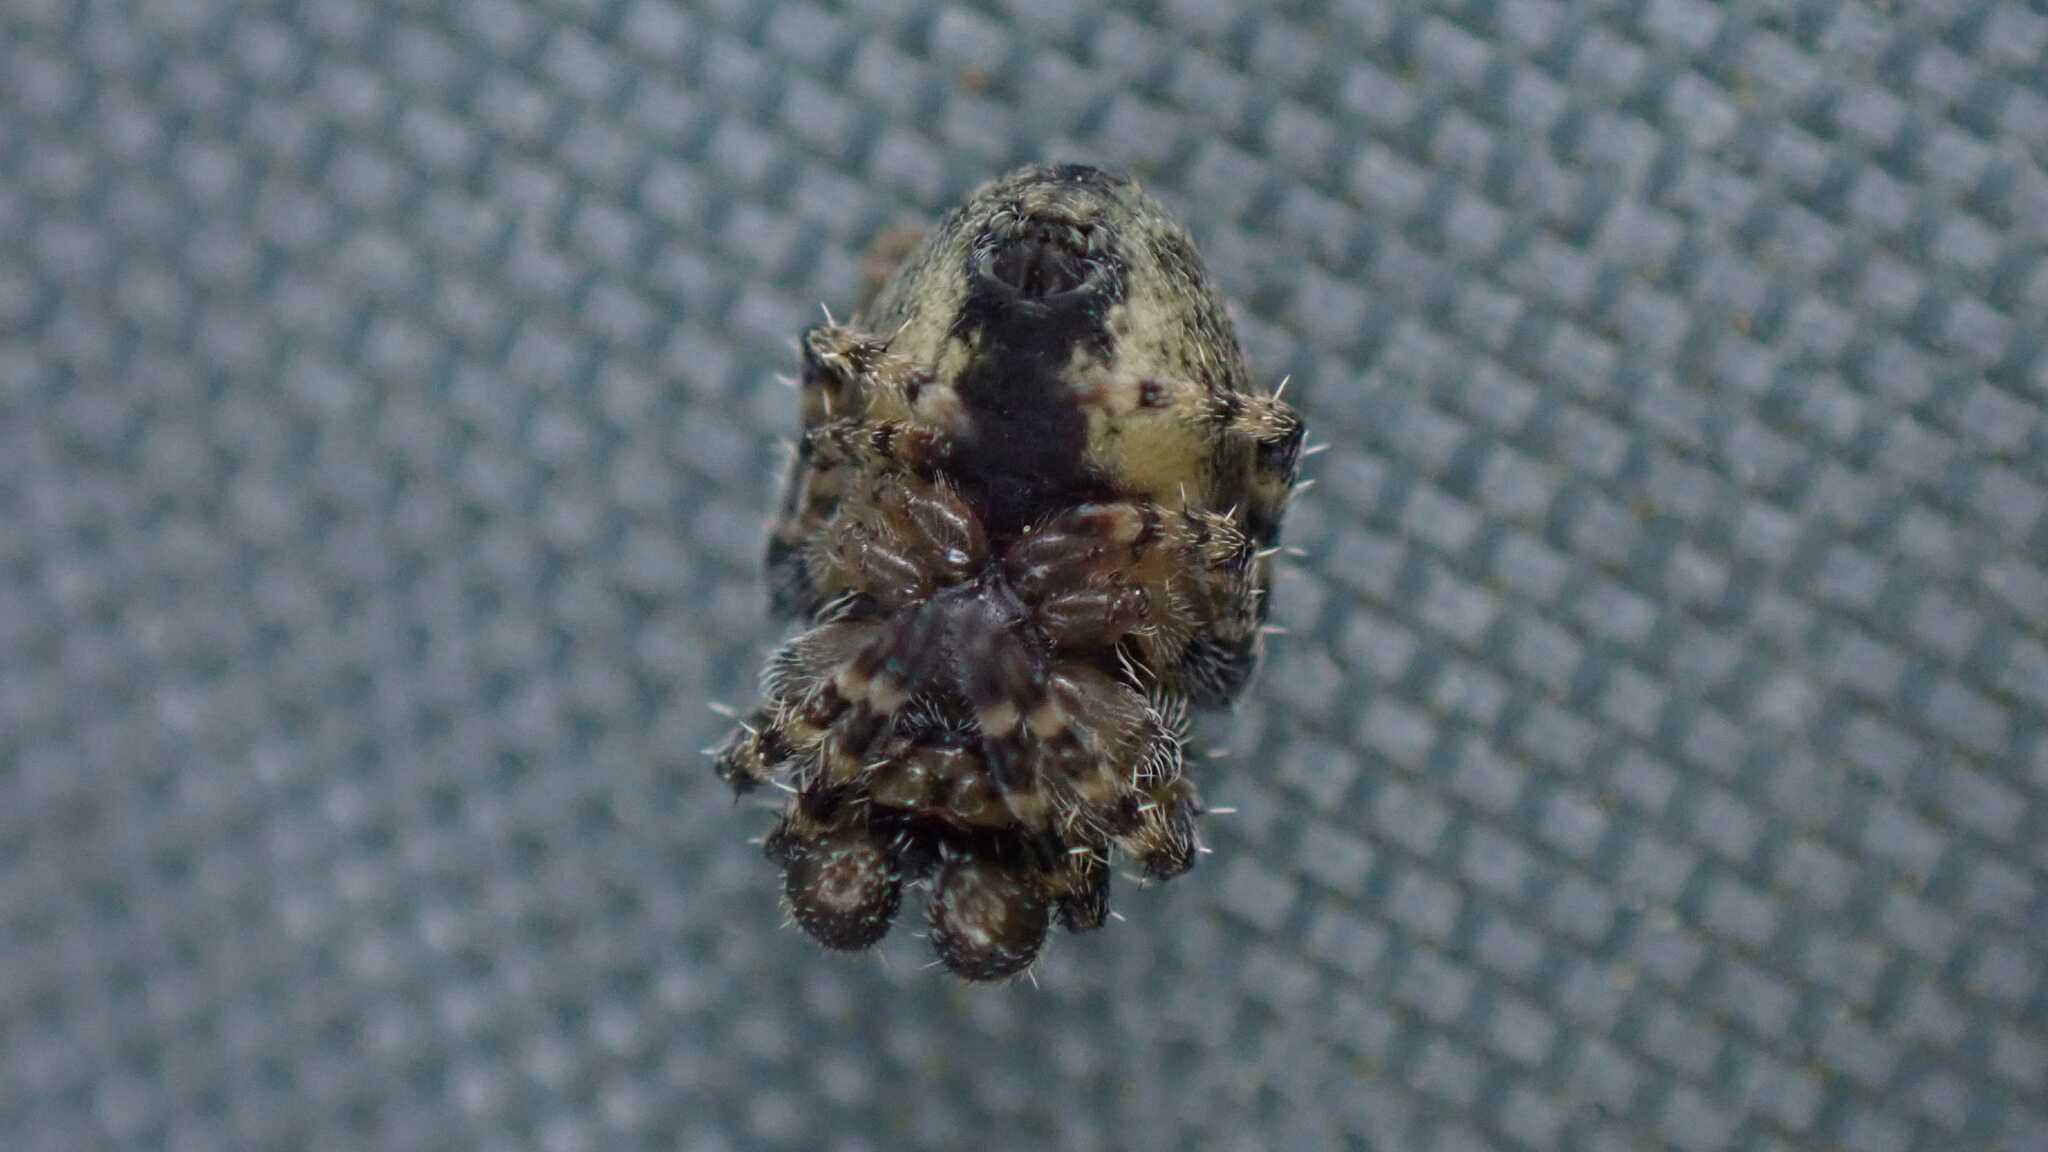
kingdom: Animalia
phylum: Arthropoda
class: Arachnida
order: Araneae
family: Araneidae
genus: Gibbaranea
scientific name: Gibbaranea gibbosa
